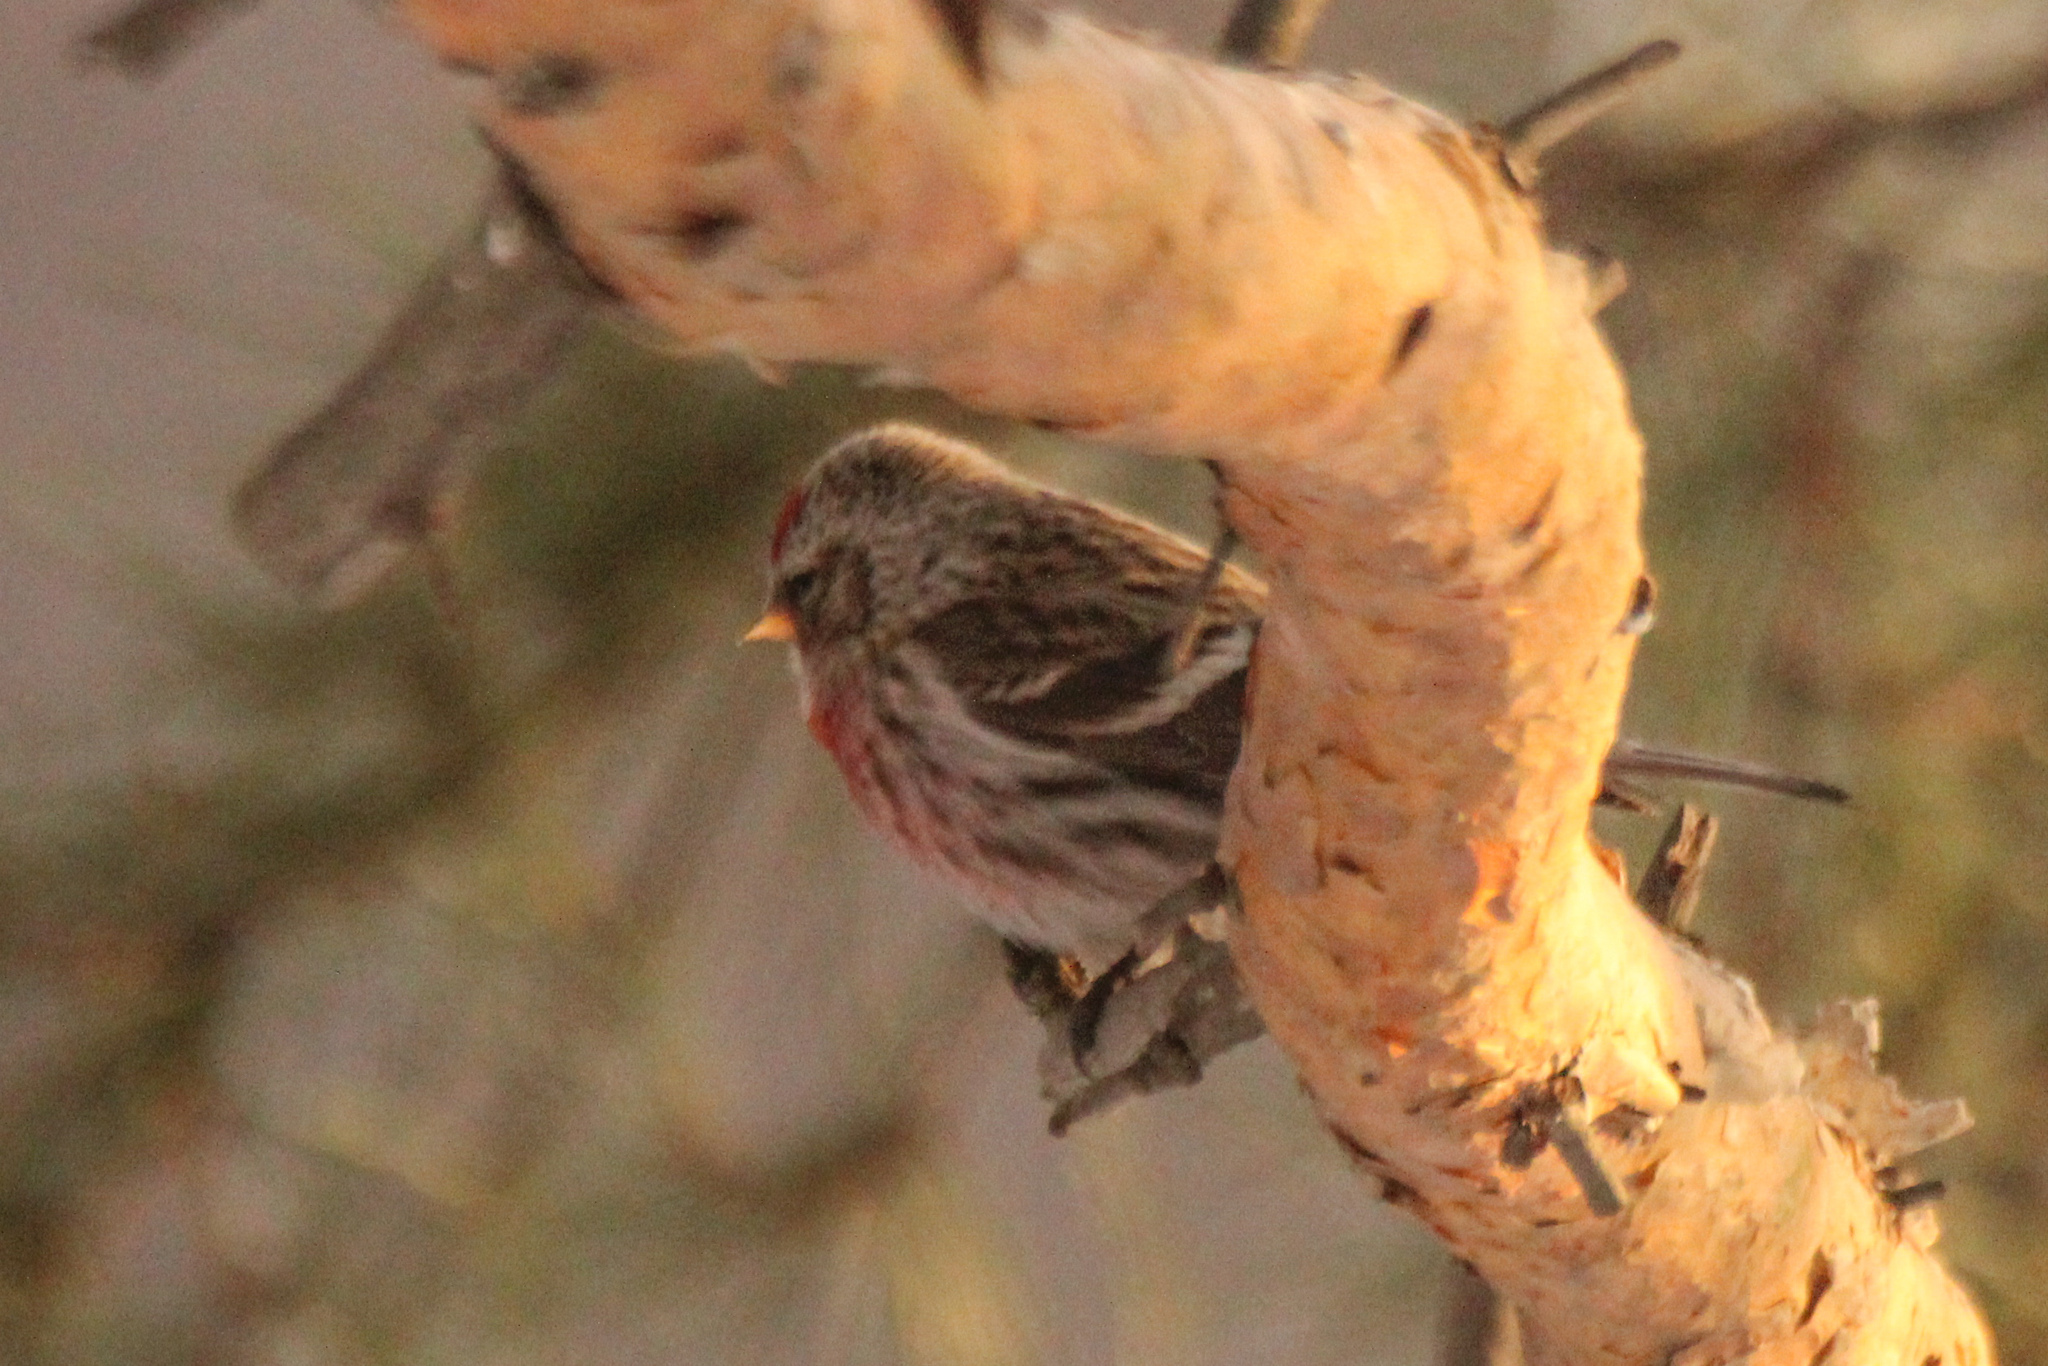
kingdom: Animalia
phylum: Chordata
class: Aves
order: Passeriformes
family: Fringillidae
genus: Acanthis
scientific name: Acanthis flammea
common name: Common redpoll
